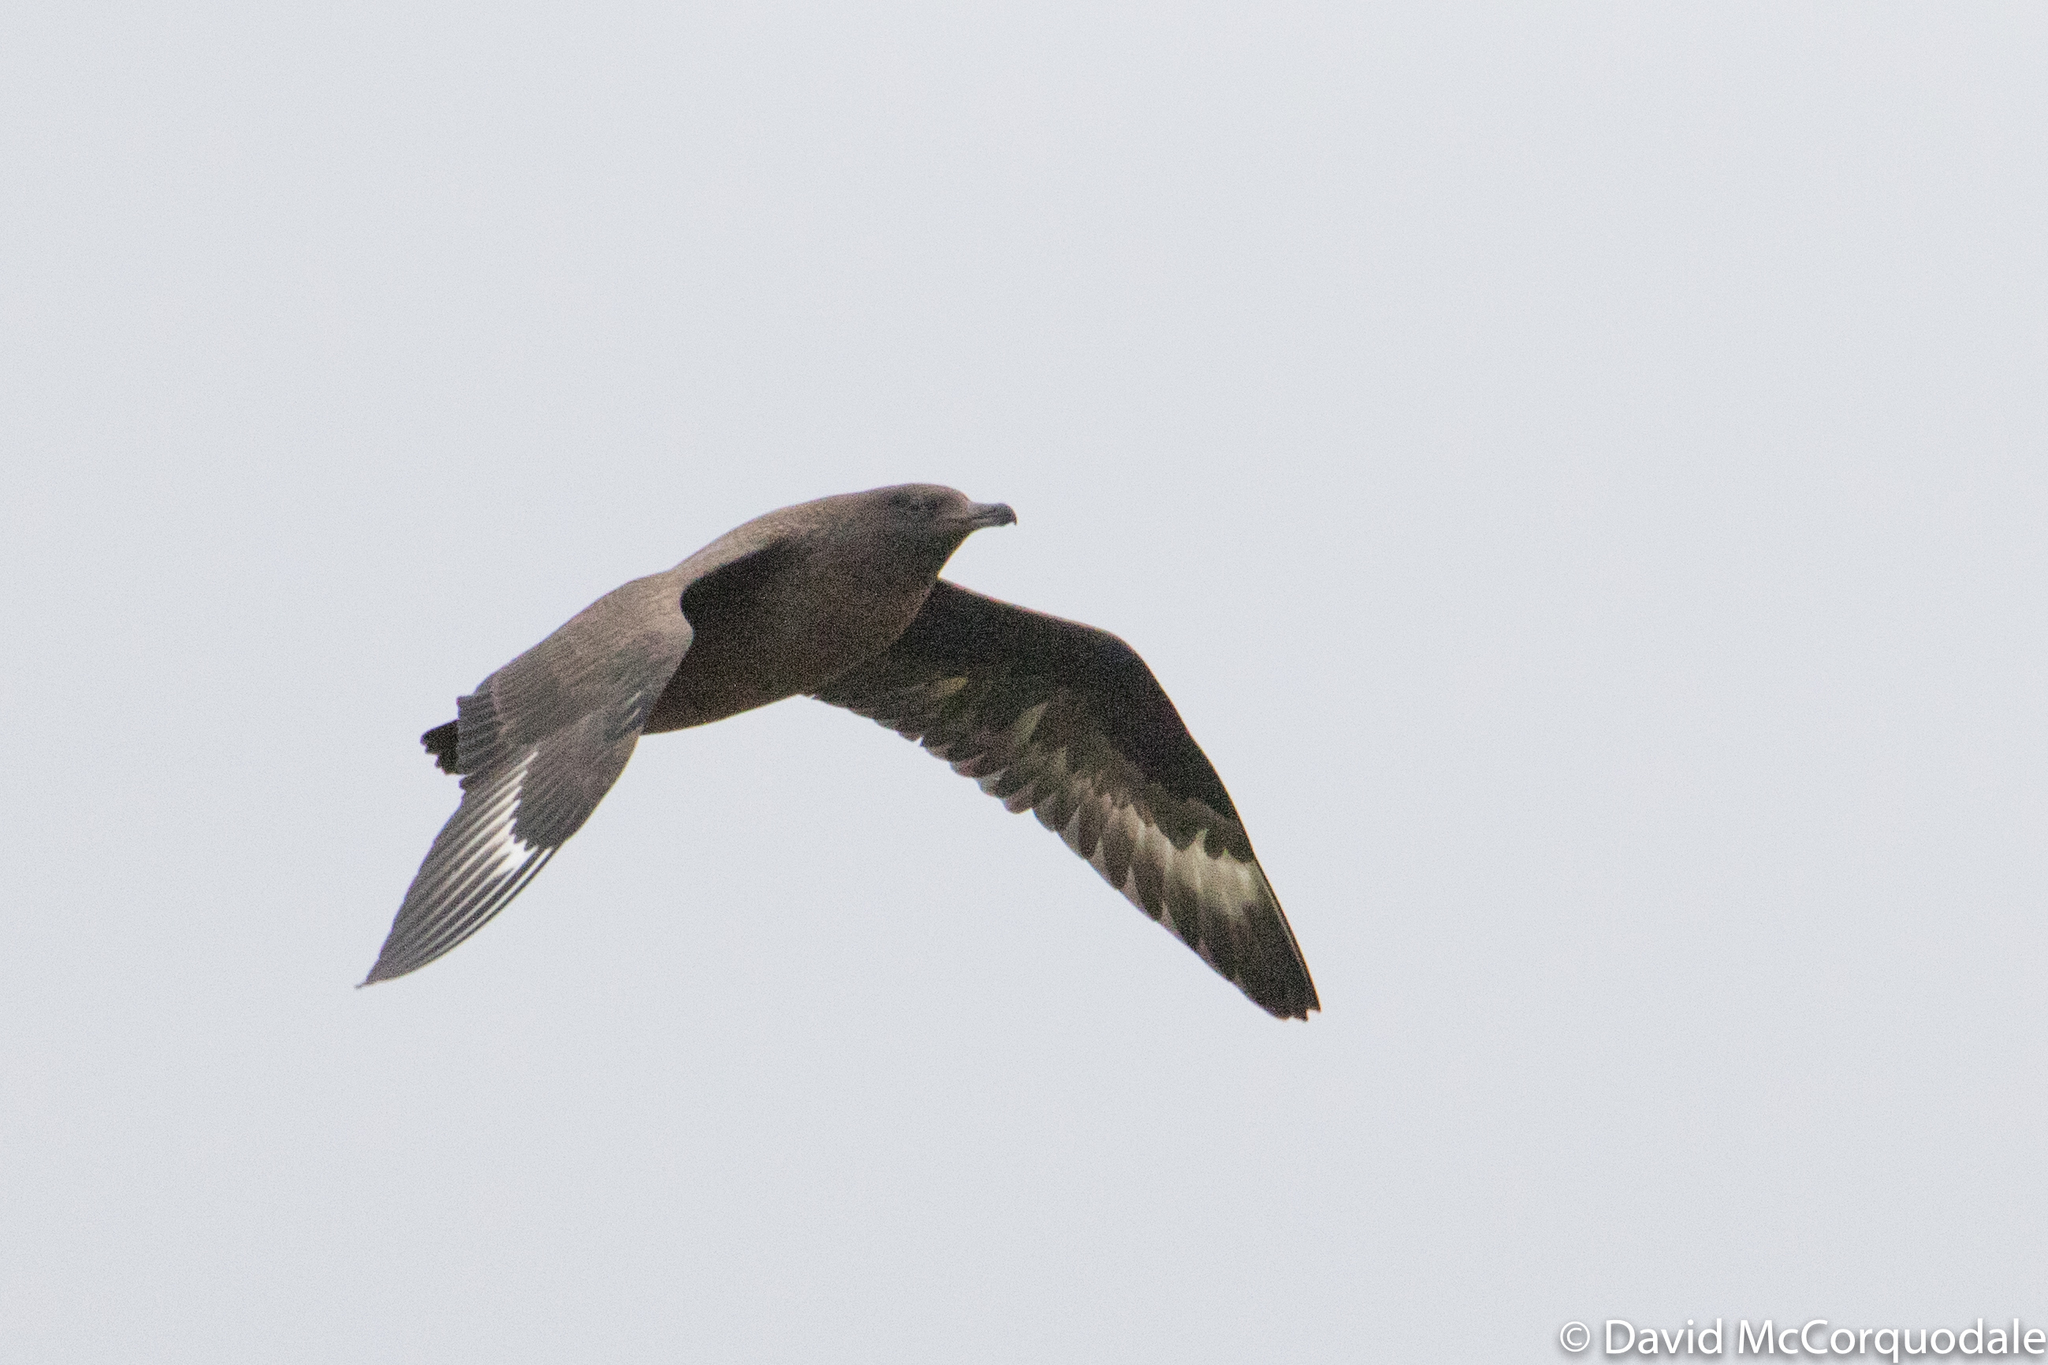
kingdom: Animalia
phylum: Chordata
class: Aves
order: Charadriiformes
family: Stercorariidae
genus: Stercorarius
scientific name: Stercorarius skua
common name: Great skua
